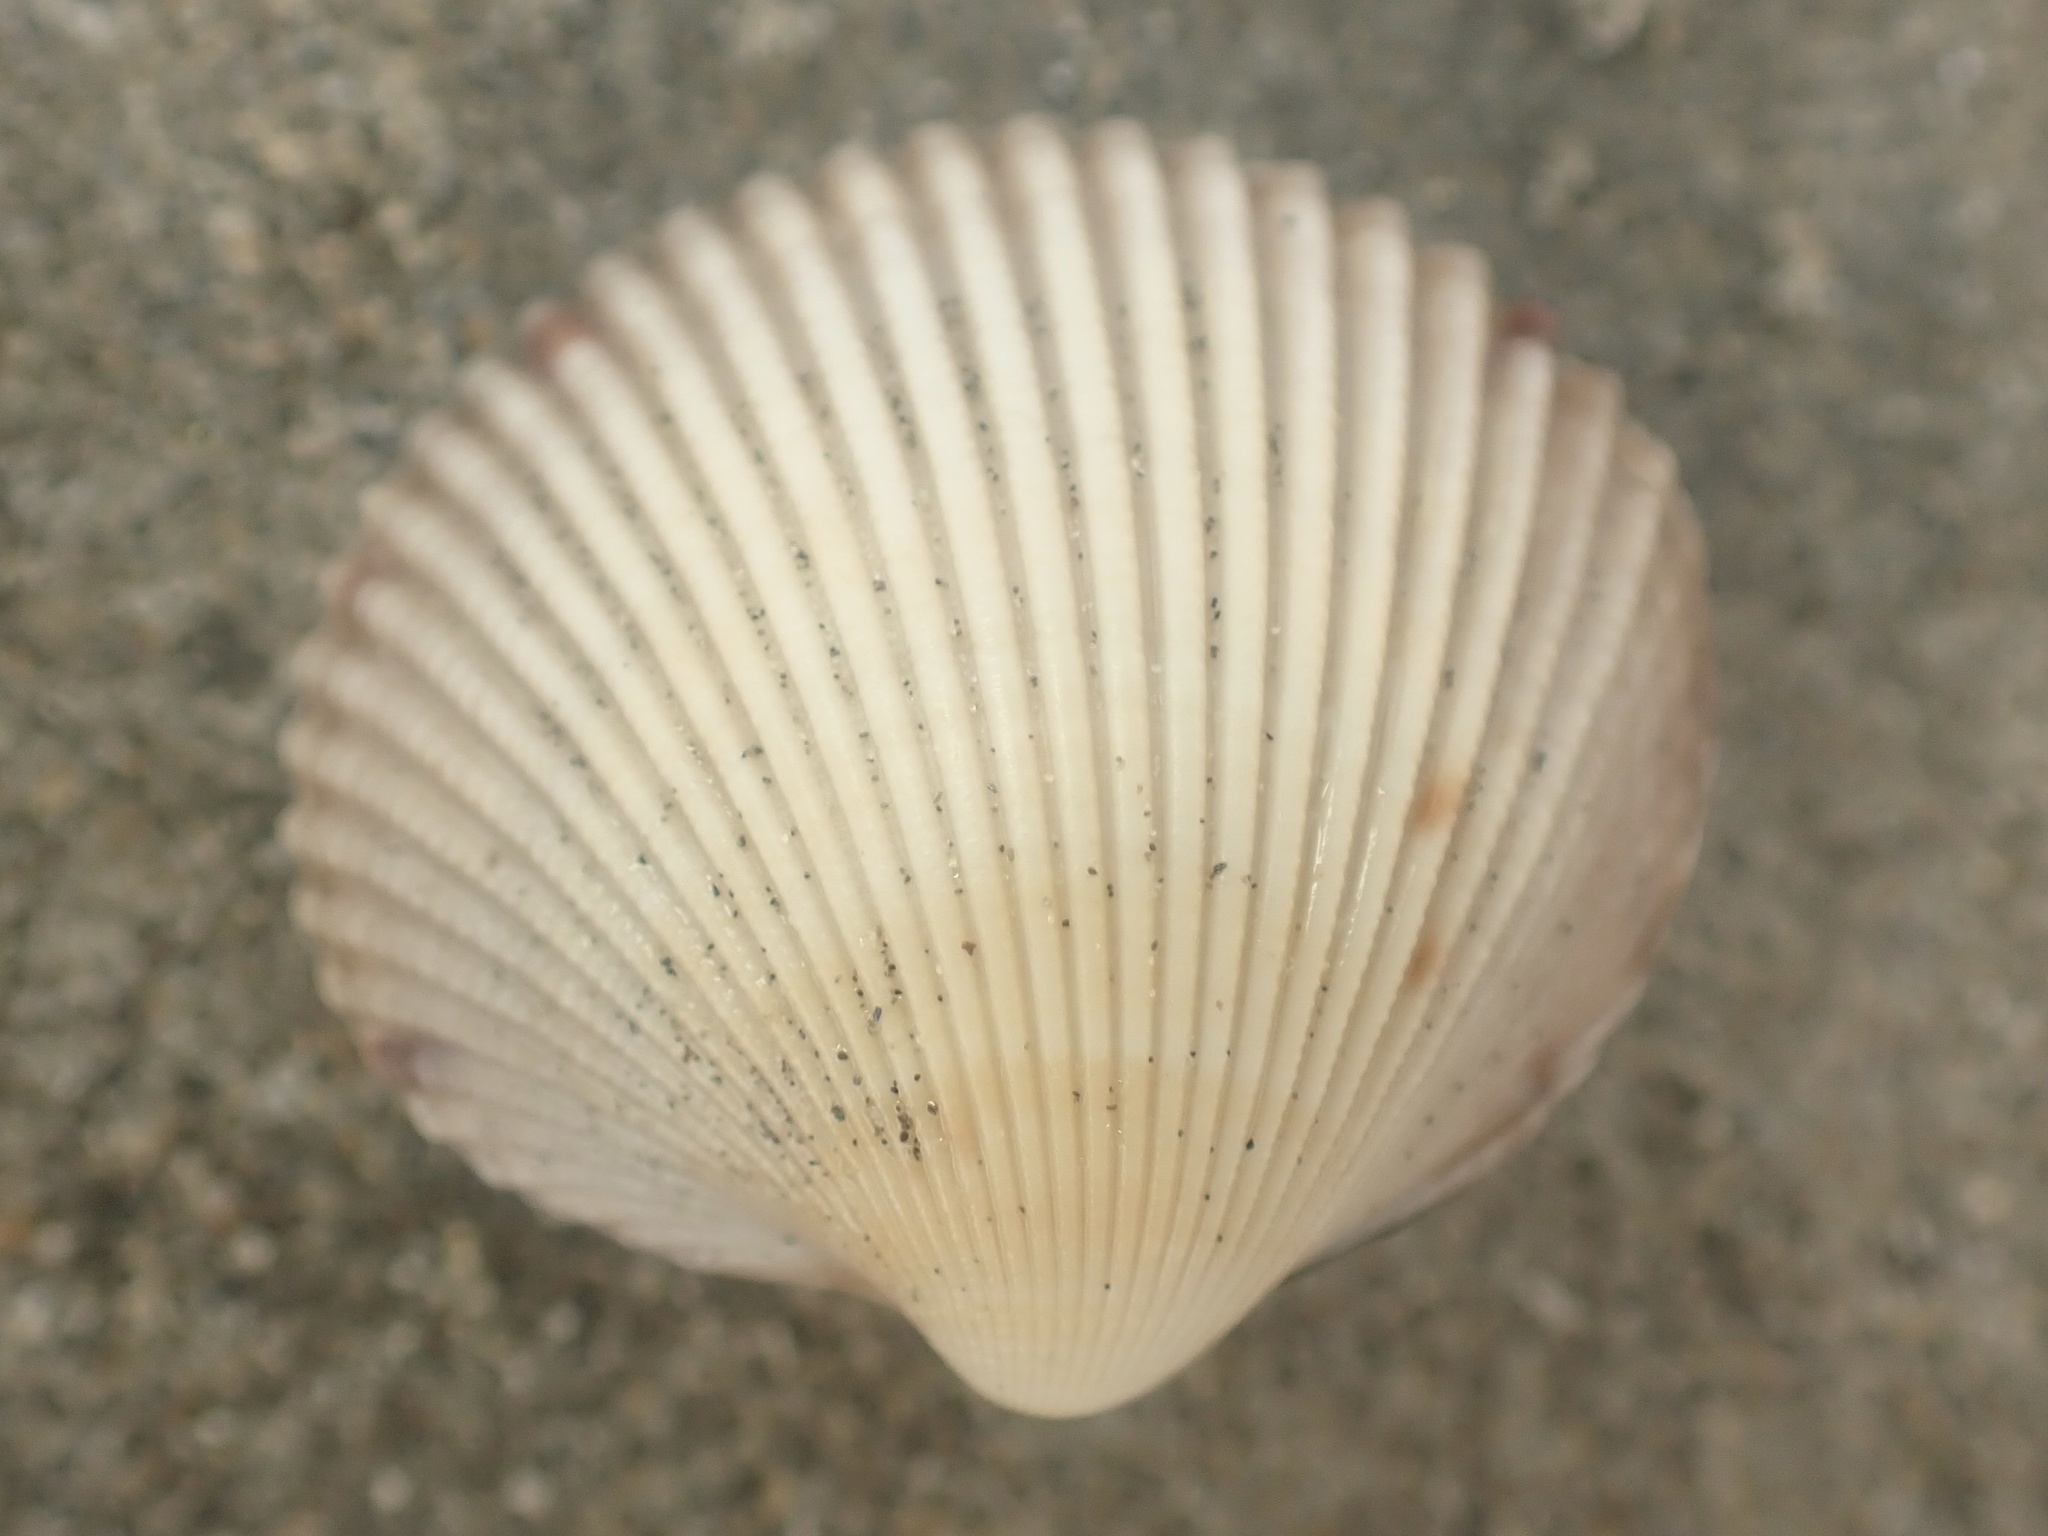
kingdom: Animalia
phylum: Mollusca
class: Bivalvia
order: Cardiida
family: Cardiidae
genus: Clinocardium
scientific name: Clinocardium nuttallii
